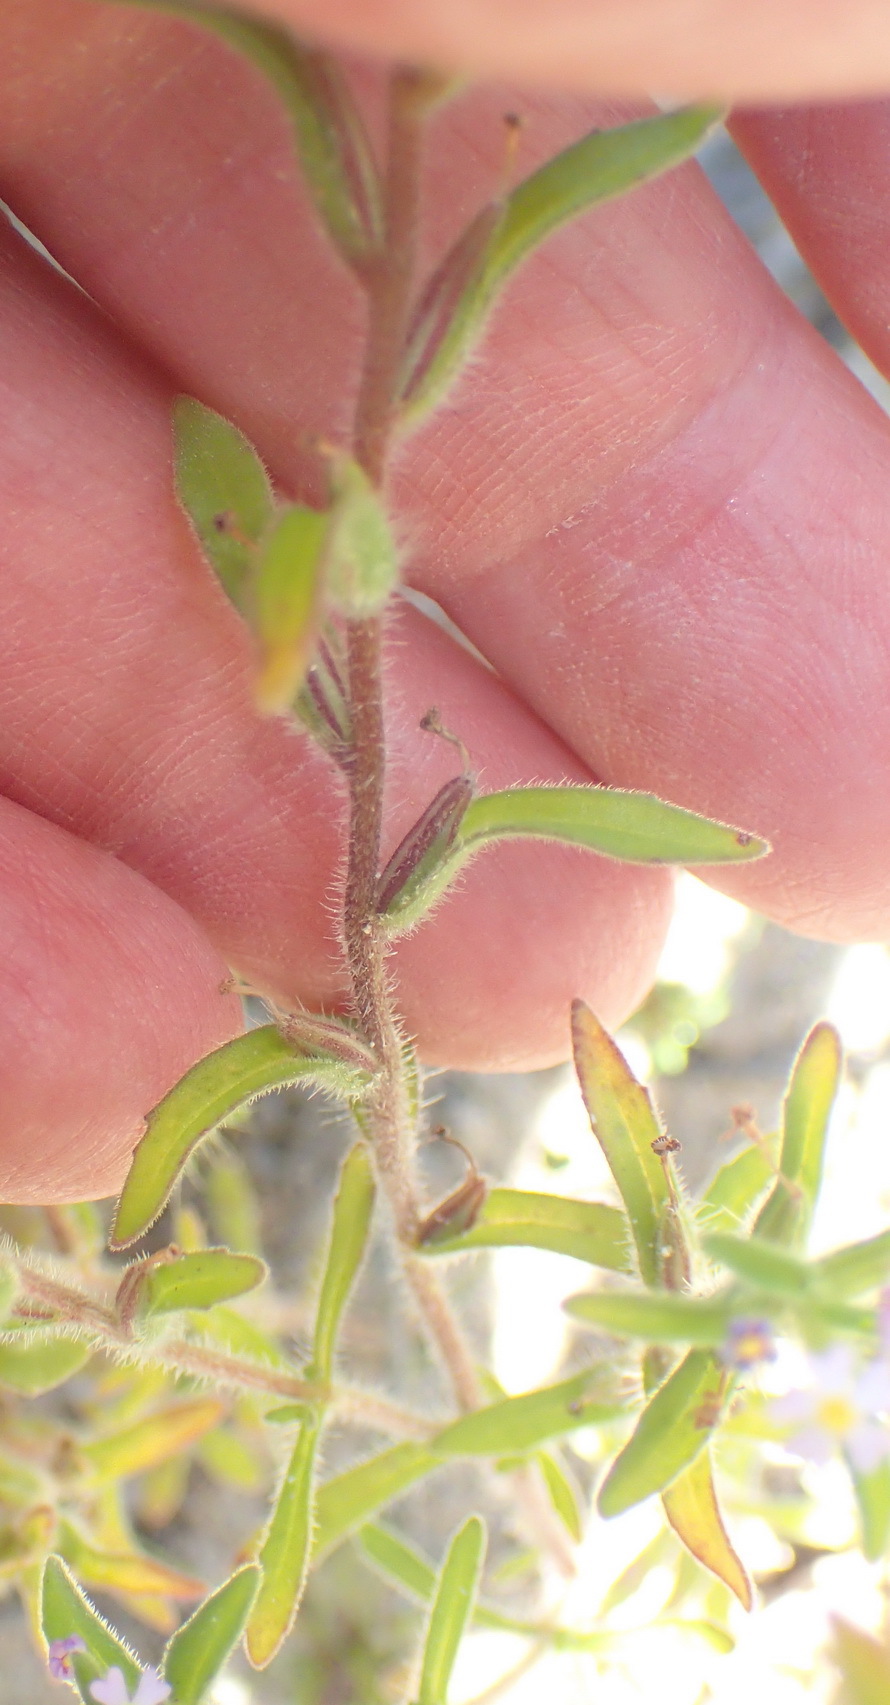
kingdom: Plantae
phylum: Tracheophyta
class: Magnoliopsida
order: Lamiales
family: Scrophulariaceae
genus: Zaluzianskya
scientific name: Zaluzianskya gracilis
